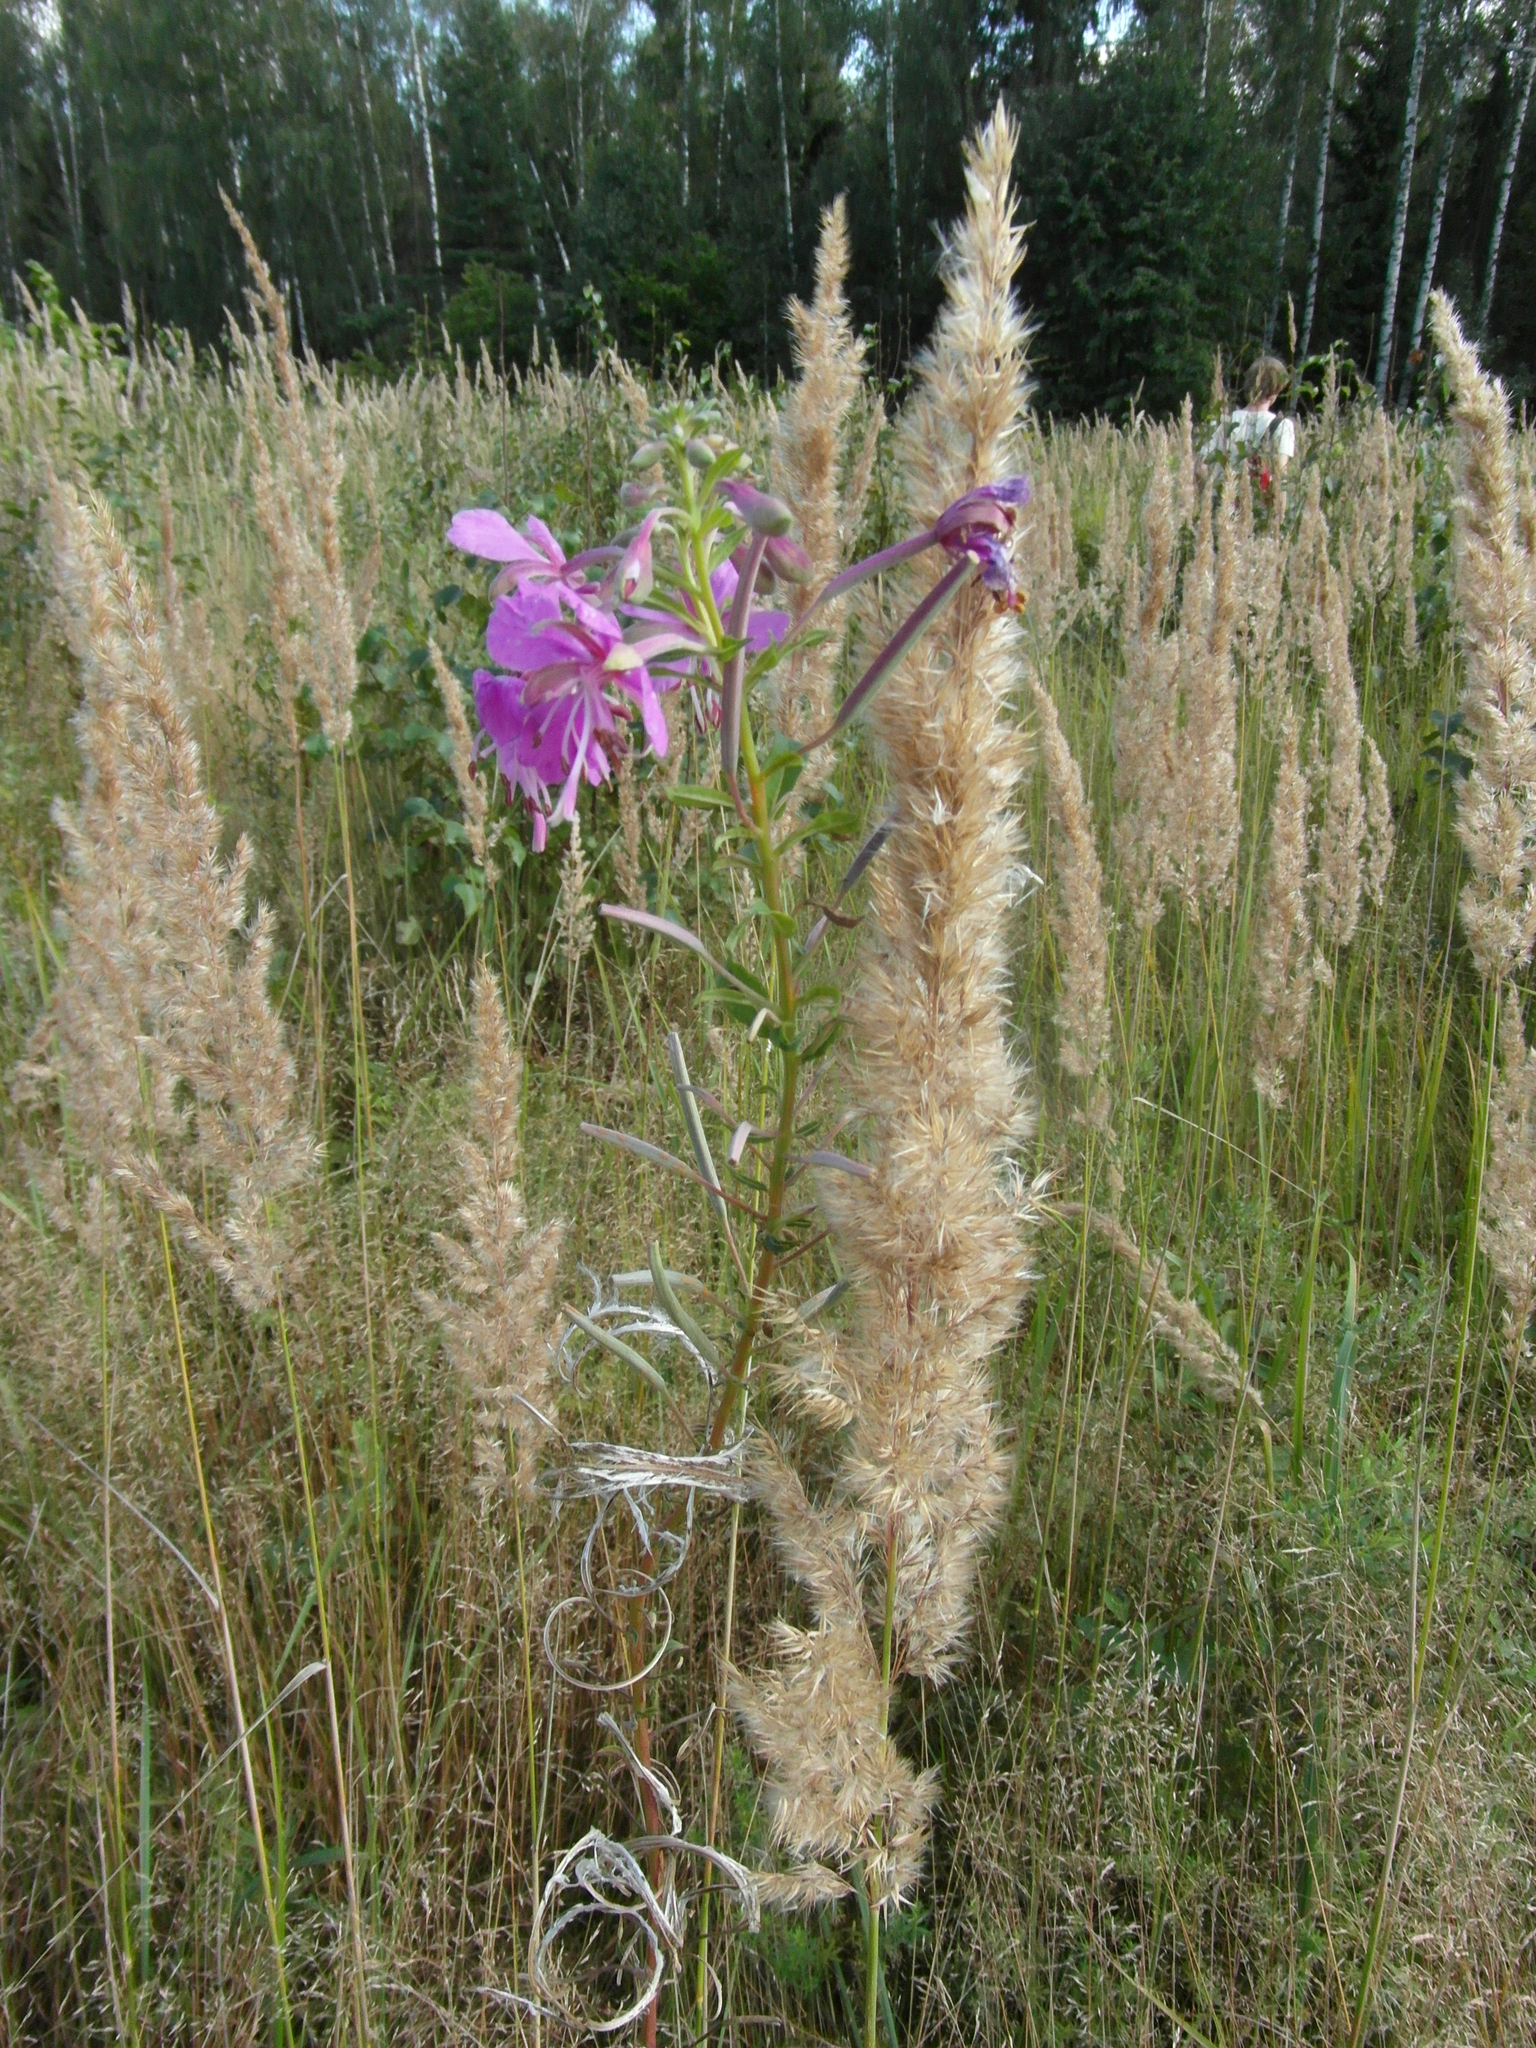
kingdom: Plantae
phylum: Tracheophyta
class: Magnoliopsida
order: Myrtales
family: Onagraceae
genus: Chamaenerion
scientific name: Chamaenerion angustifolium
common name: Fireweed
